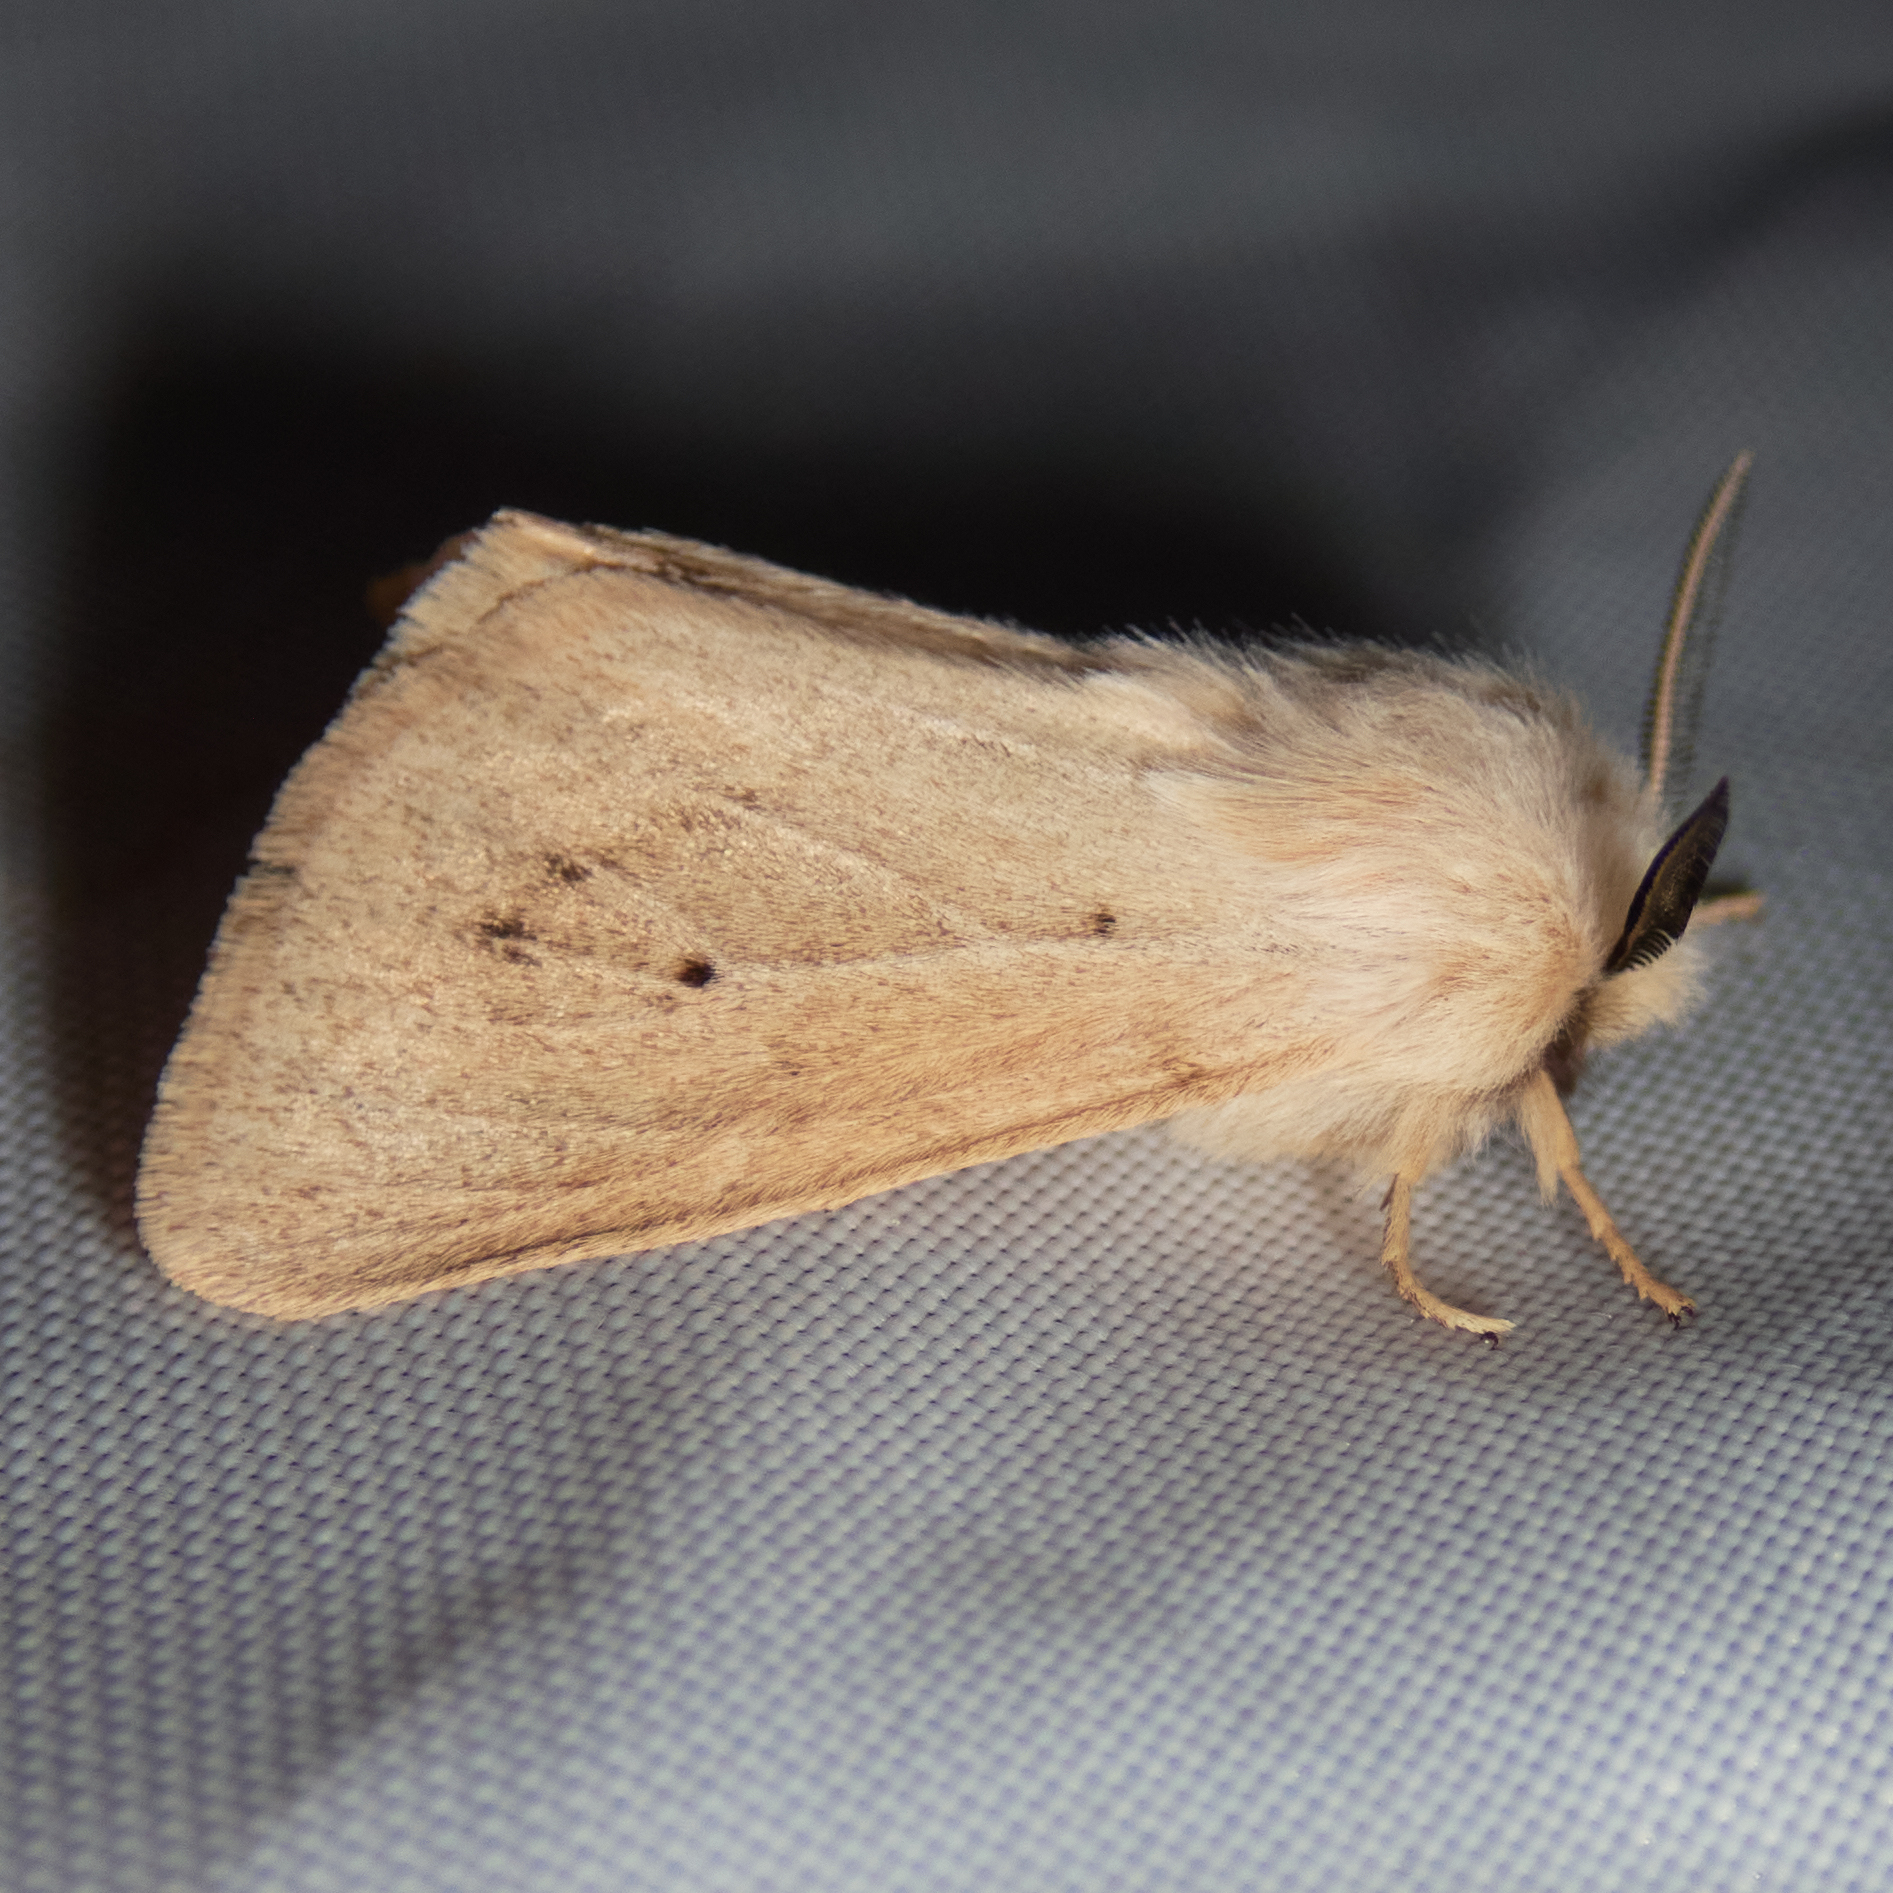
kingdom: Animalia
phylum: Arthropoda
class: Insecta
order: Lepidoptera
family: Erebidae
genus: Spilosoma
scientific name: Spilosoma vagans
